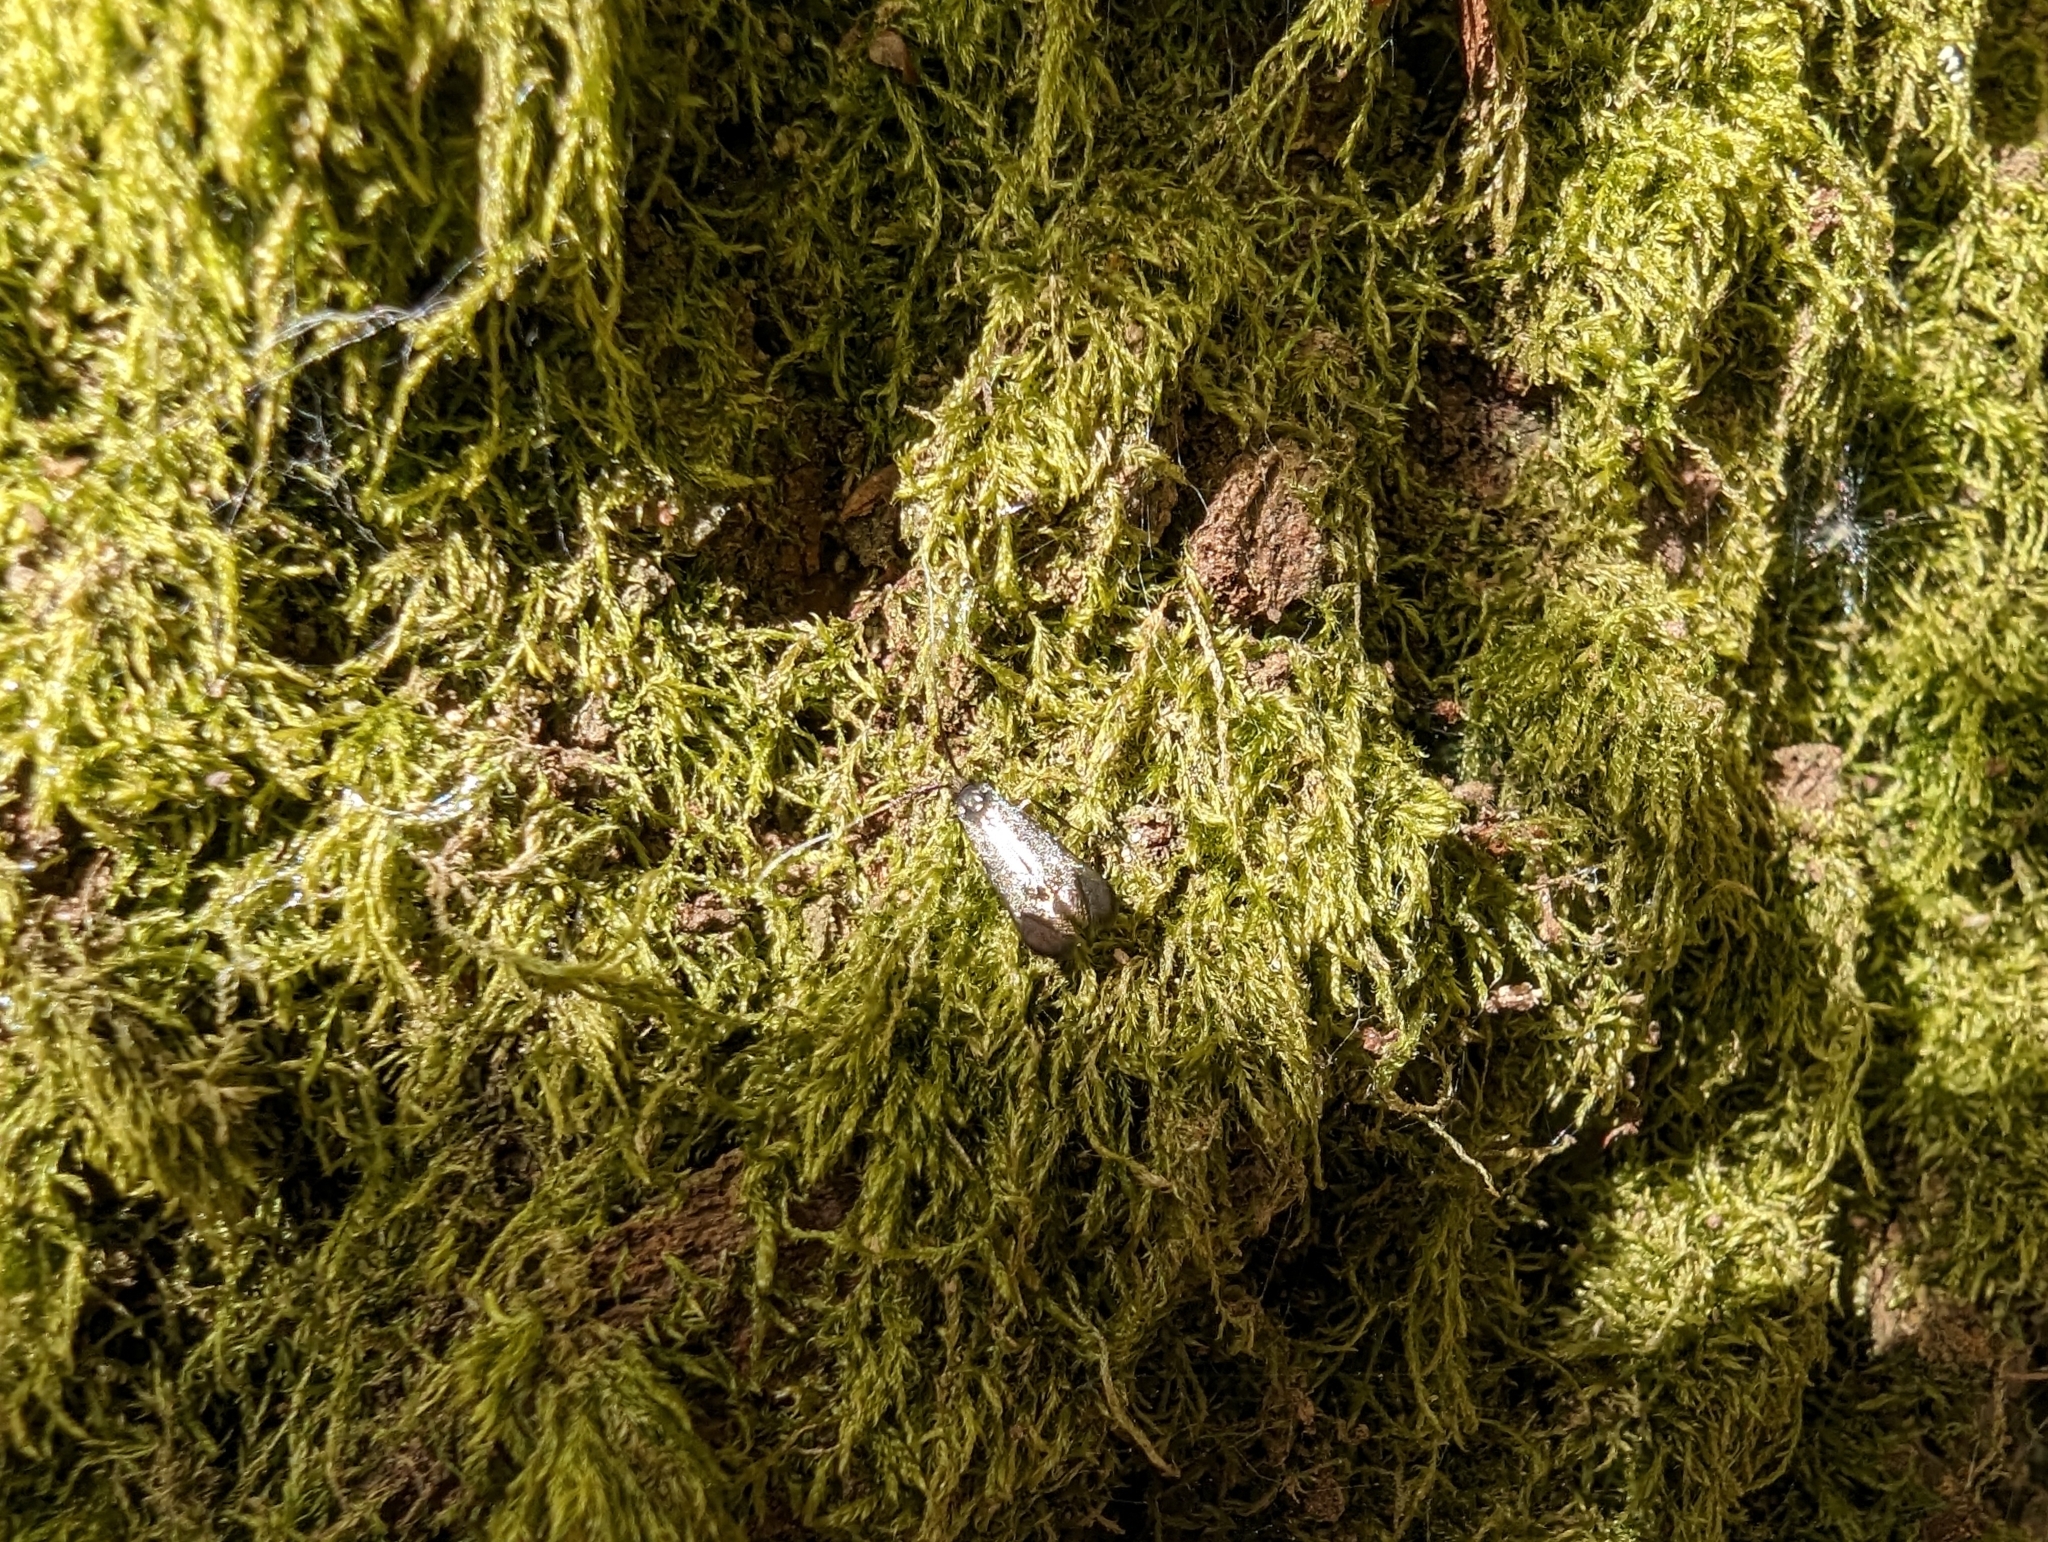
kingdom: Animalia
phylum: Arthropoda
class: Insecta
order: Lepidoptera
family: Adelidae
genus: Adela
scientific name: Adela viridella
